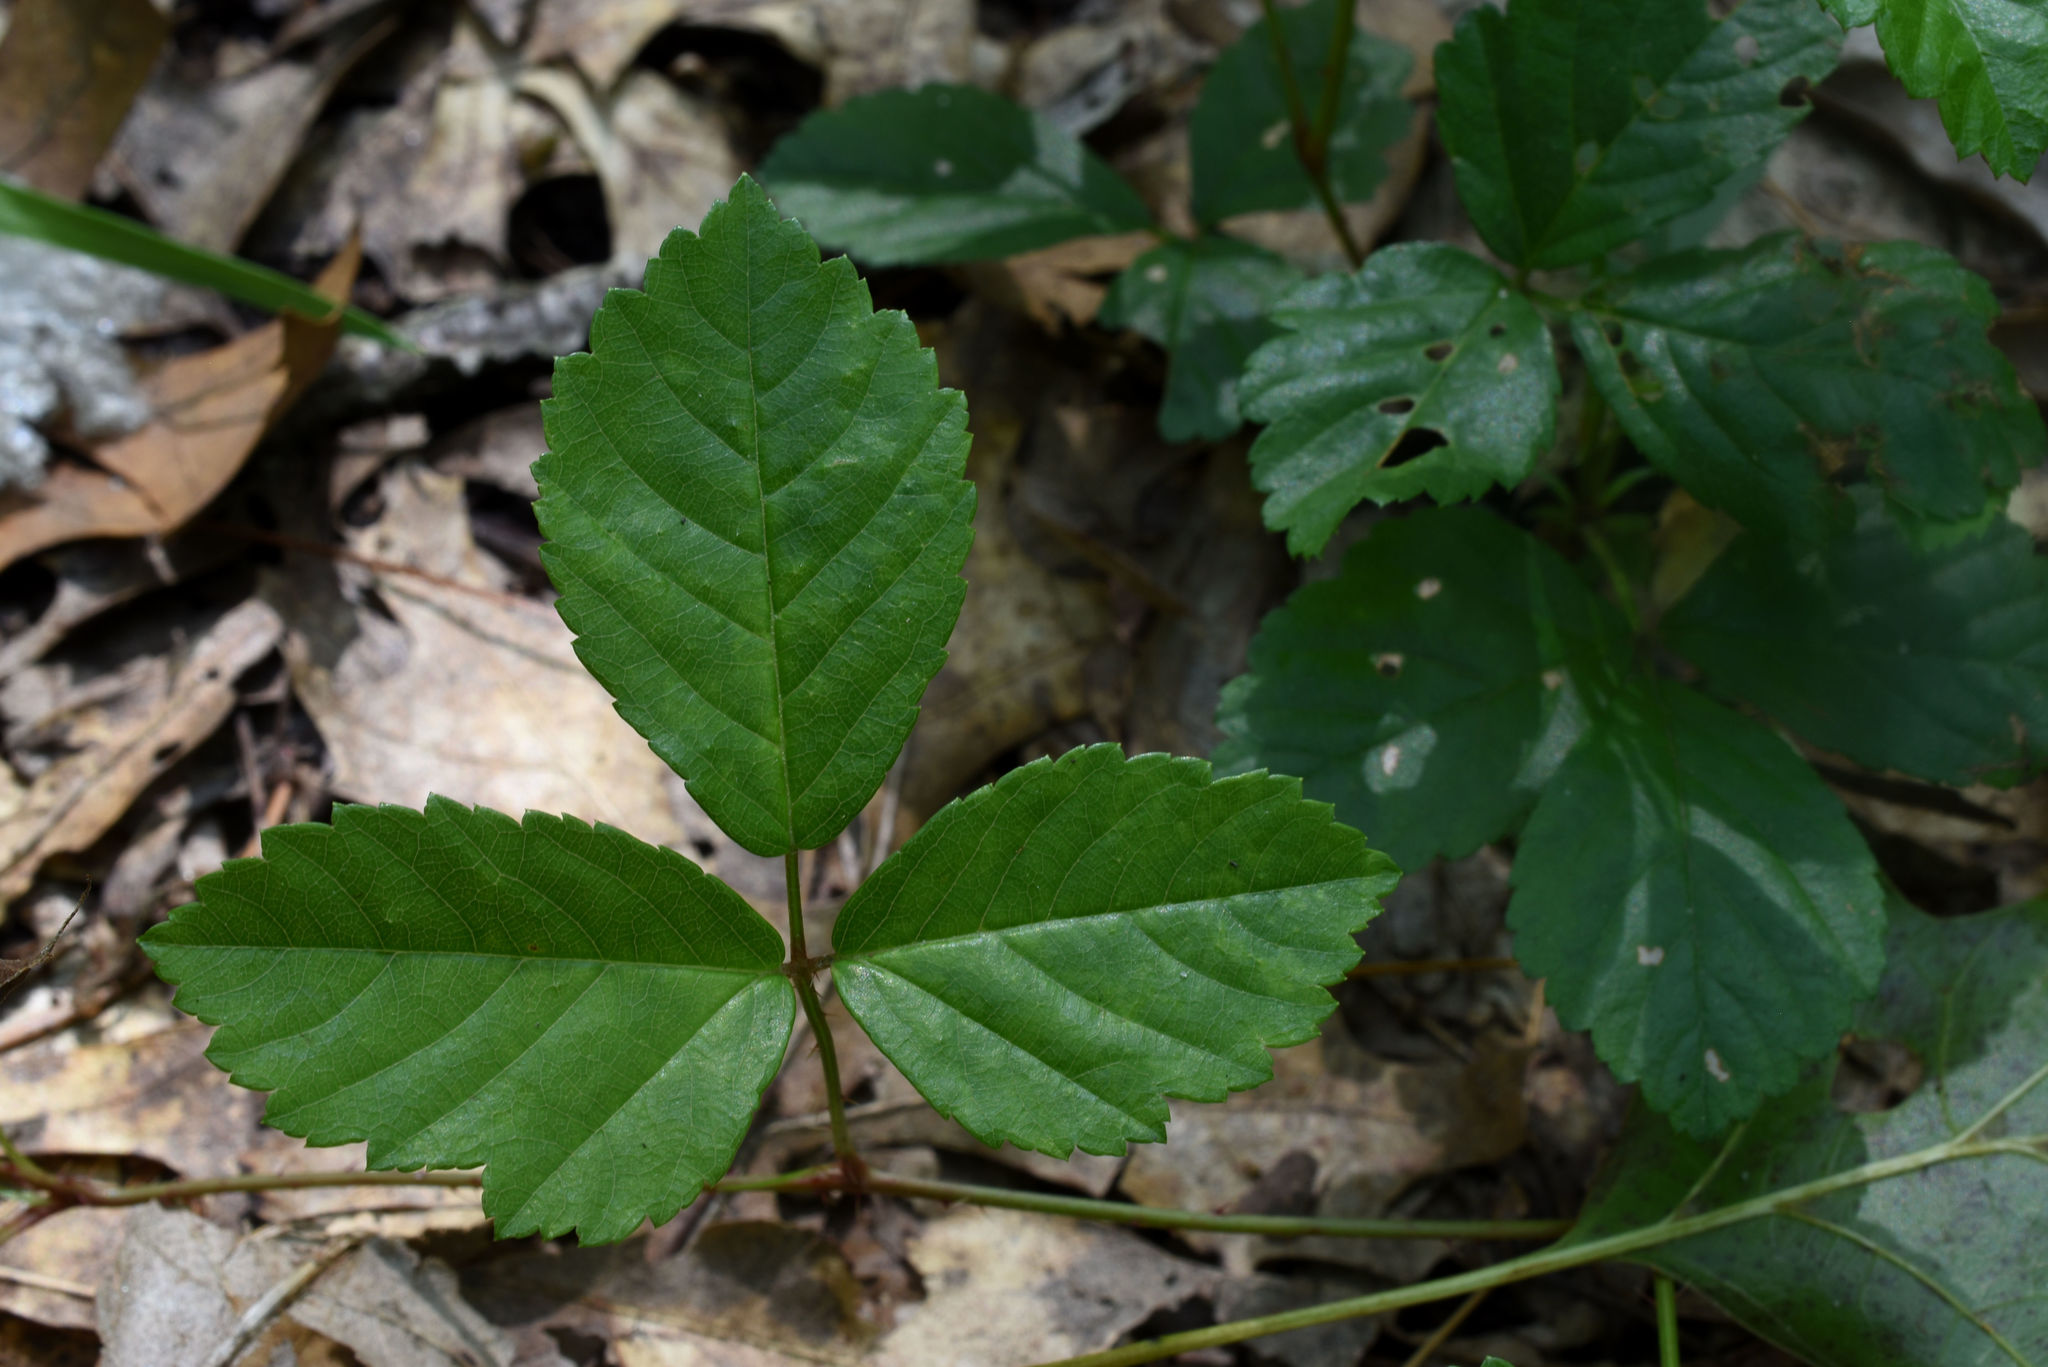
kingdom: Plantae
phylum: Tracheophyta
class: Magnoliopsida
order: Rosales
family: Rosaceae
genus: Rubus
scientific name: Rubus hispidus
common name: Running blackberry
